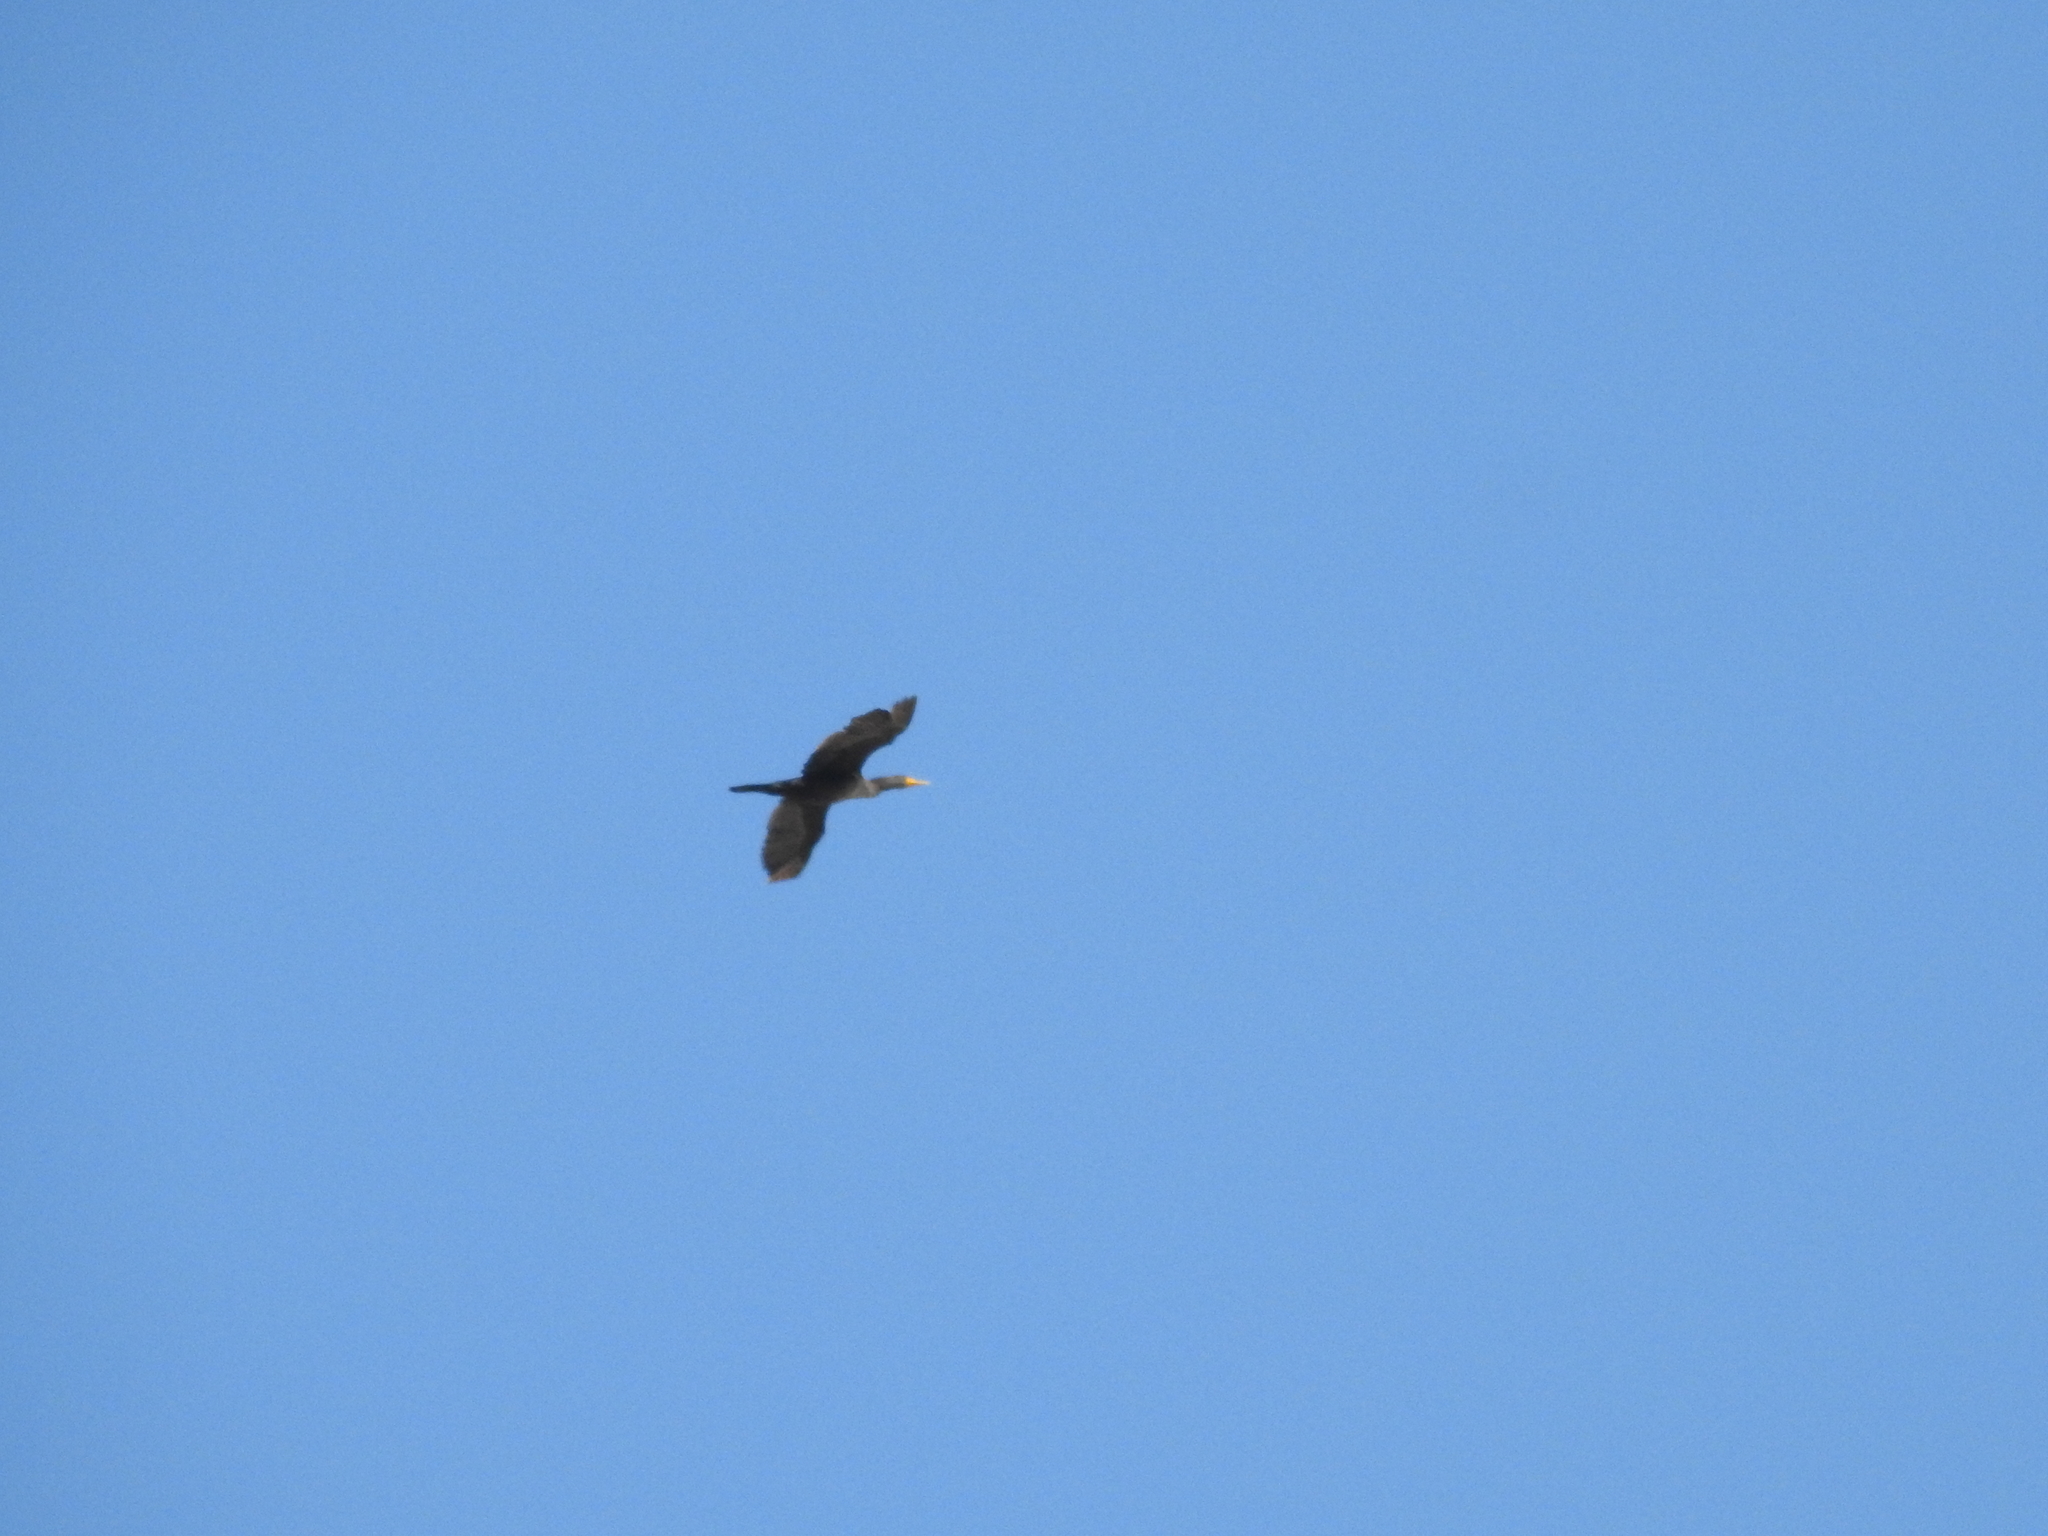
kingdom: Animalia
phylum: Chordata
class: Aves
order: Suliformes
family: Phalacrocoracidae
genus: Phalacrocorax
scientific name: Phalacrocorax auritus
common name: Double-crested cormorant
